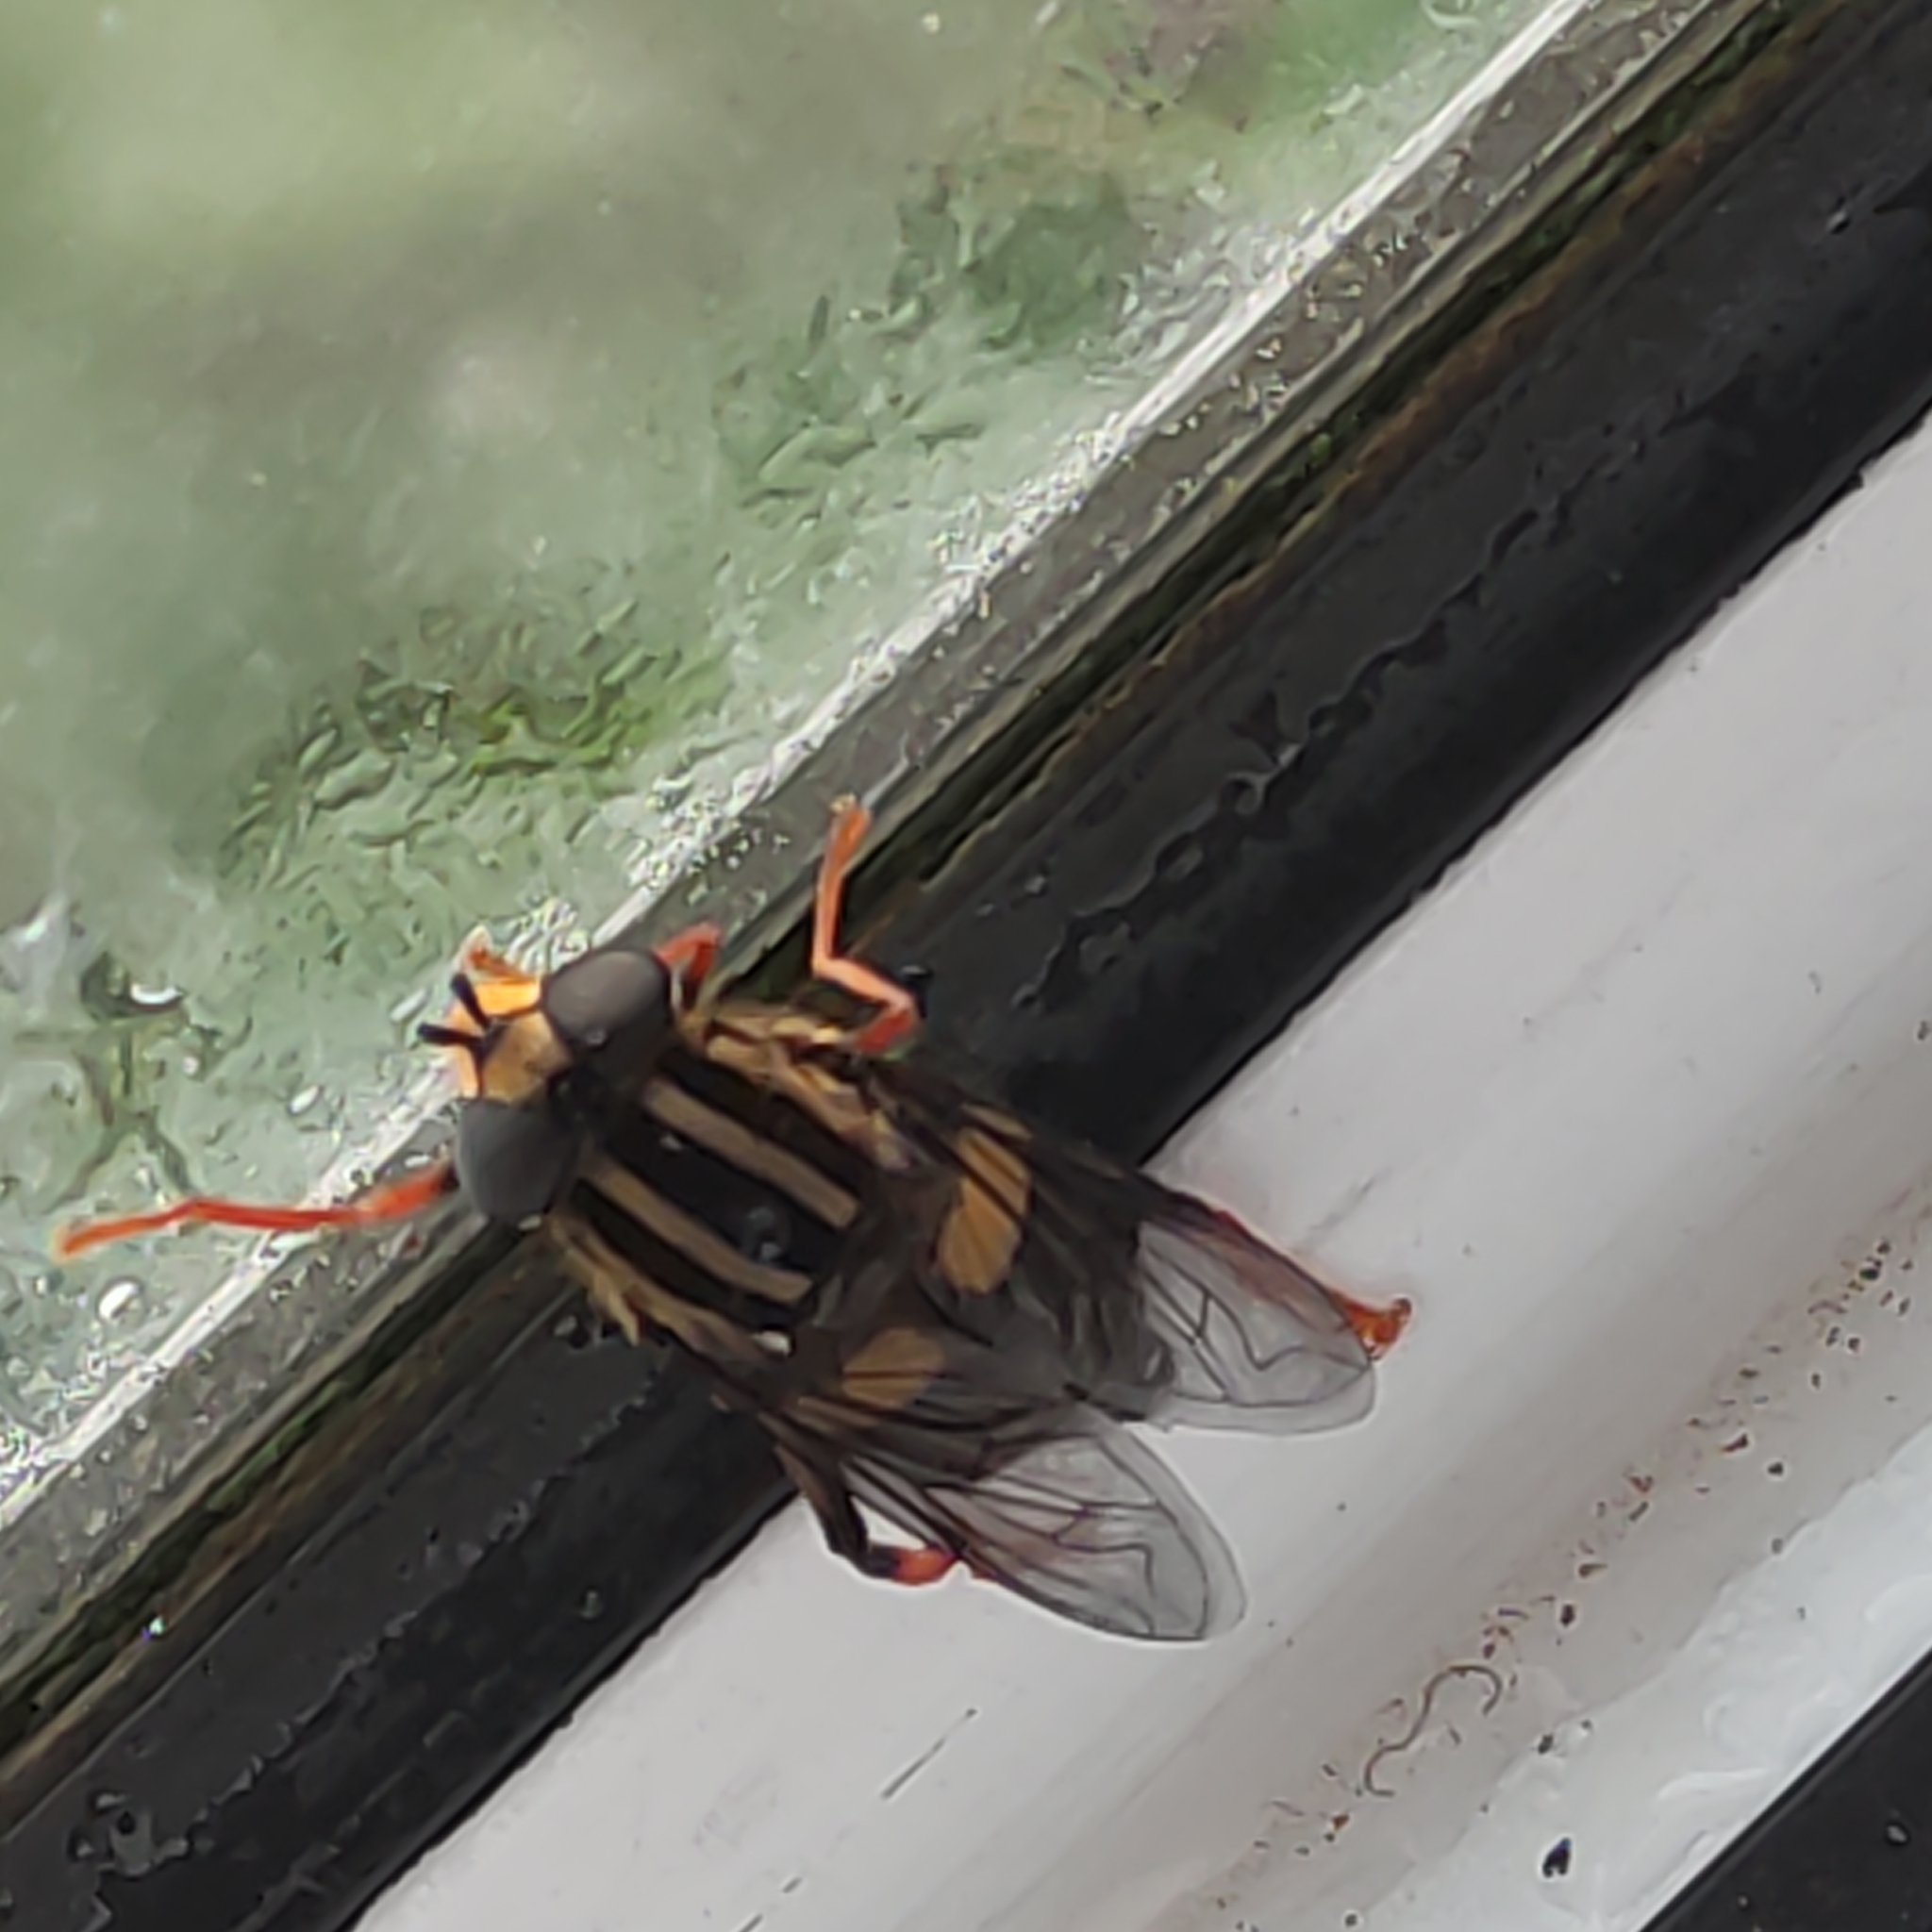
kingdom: Animalia
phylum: Arthropoda
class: Insecta
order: Diptera
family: Syrphidae
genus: Helophilus
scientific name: Helophilus seelandicus
